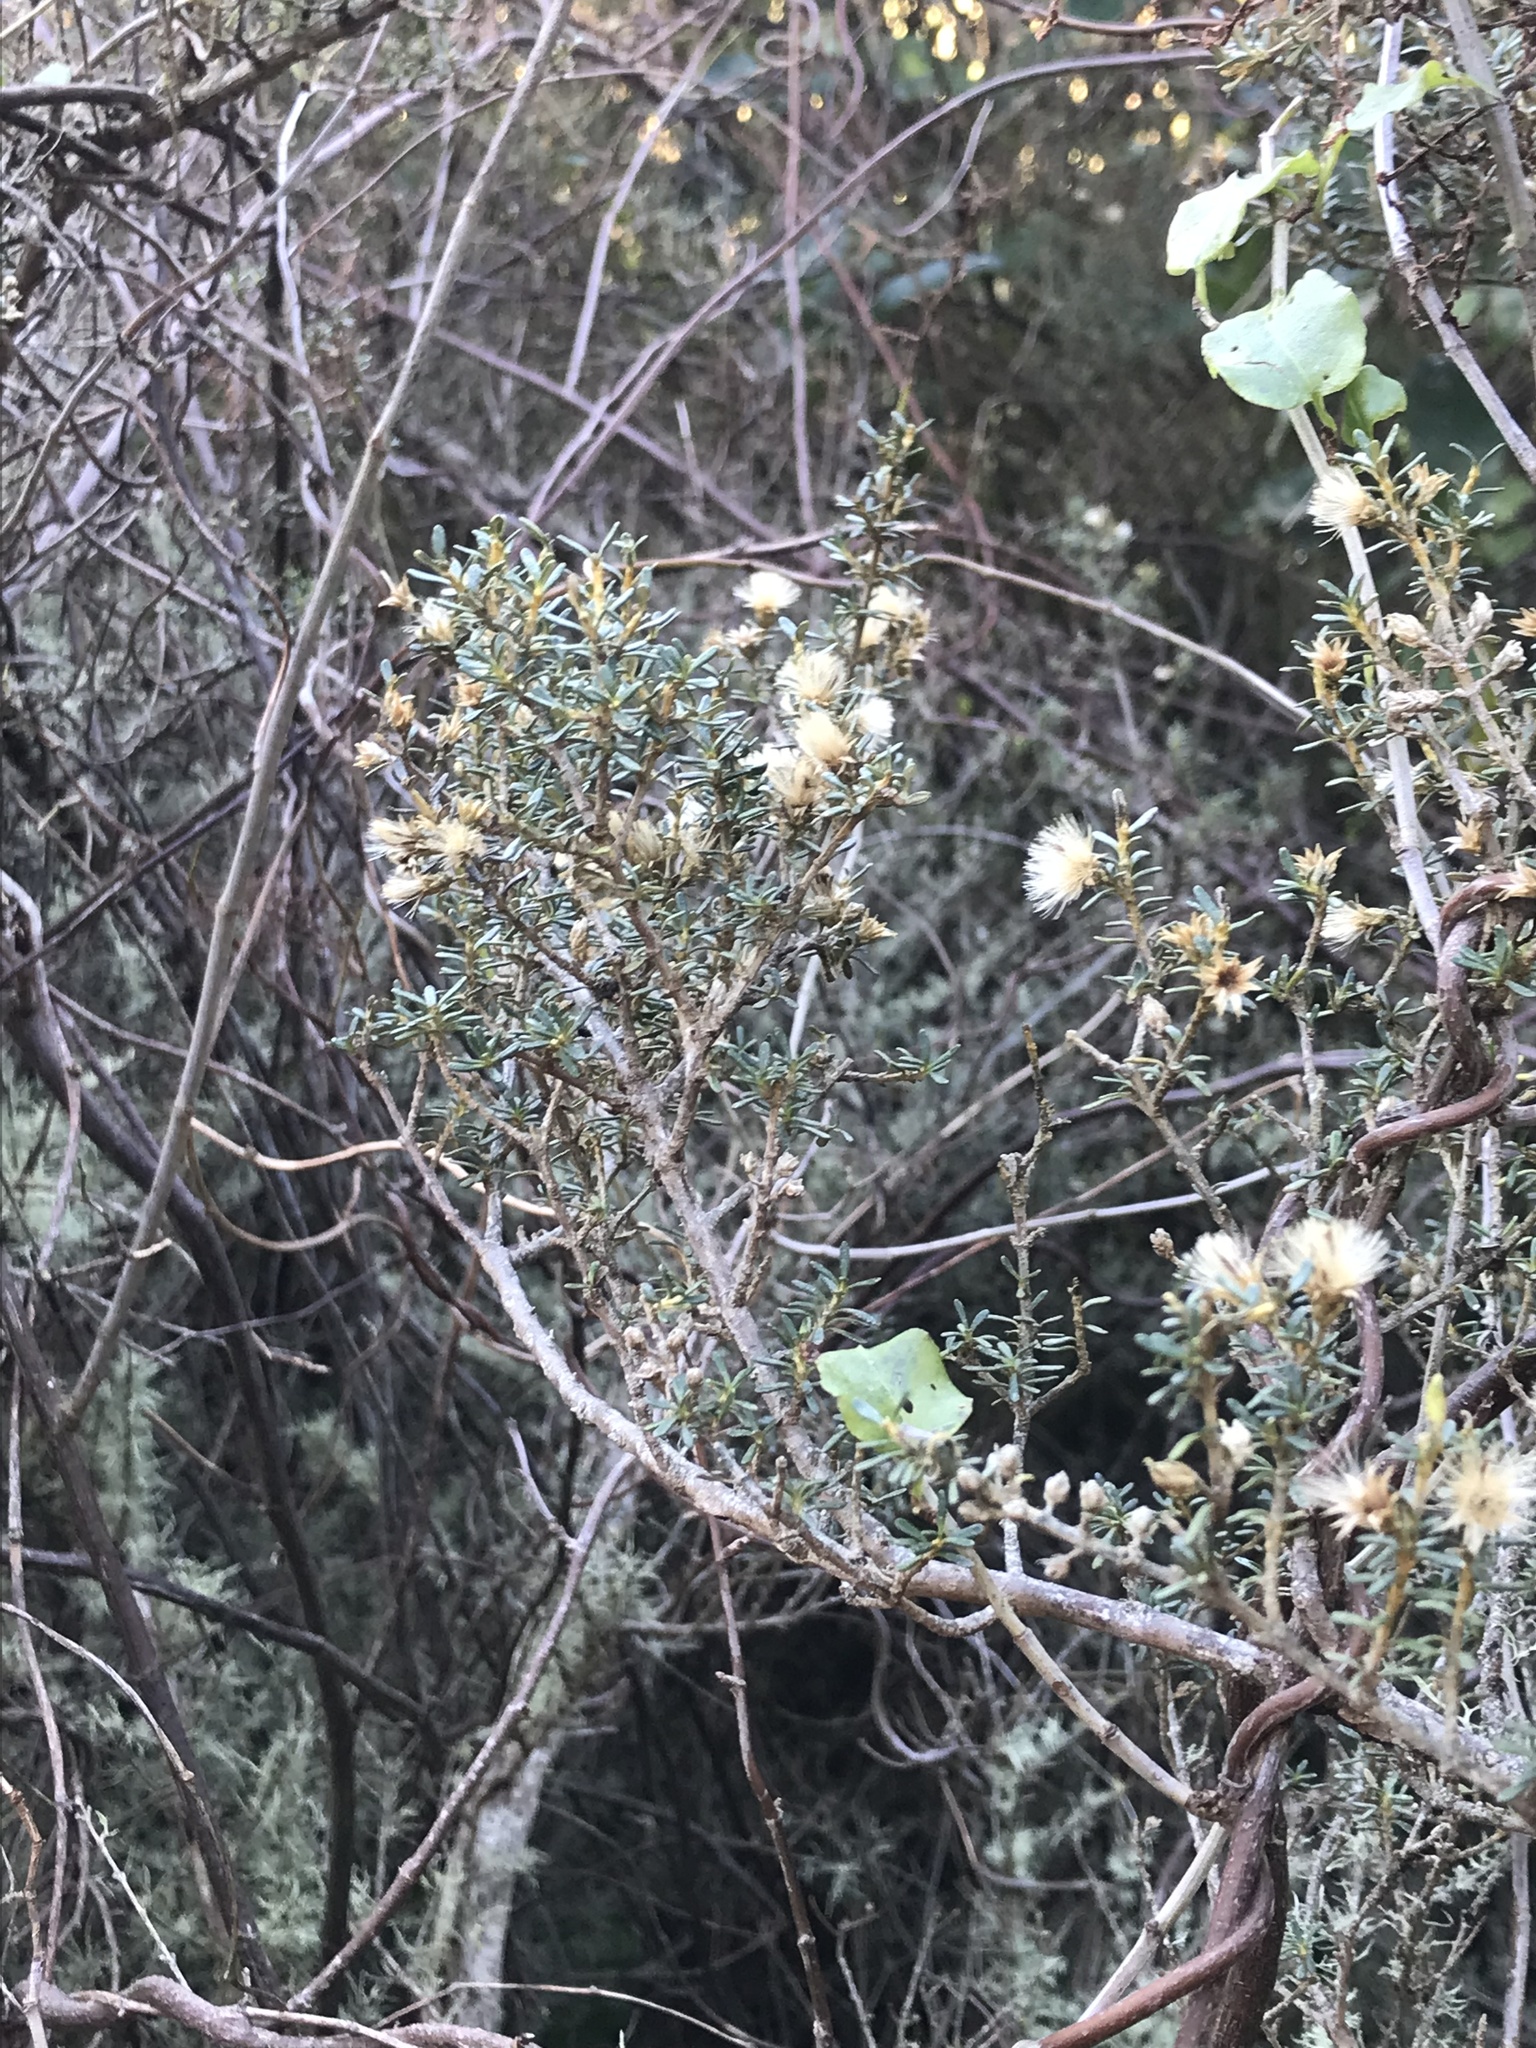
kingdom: Plantae
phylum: Tracheophyta
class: Magnoliopsida
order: Asterales
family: Asteraceae
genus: Olearia
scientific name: Olearia solandri
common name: Coastal daisybush
